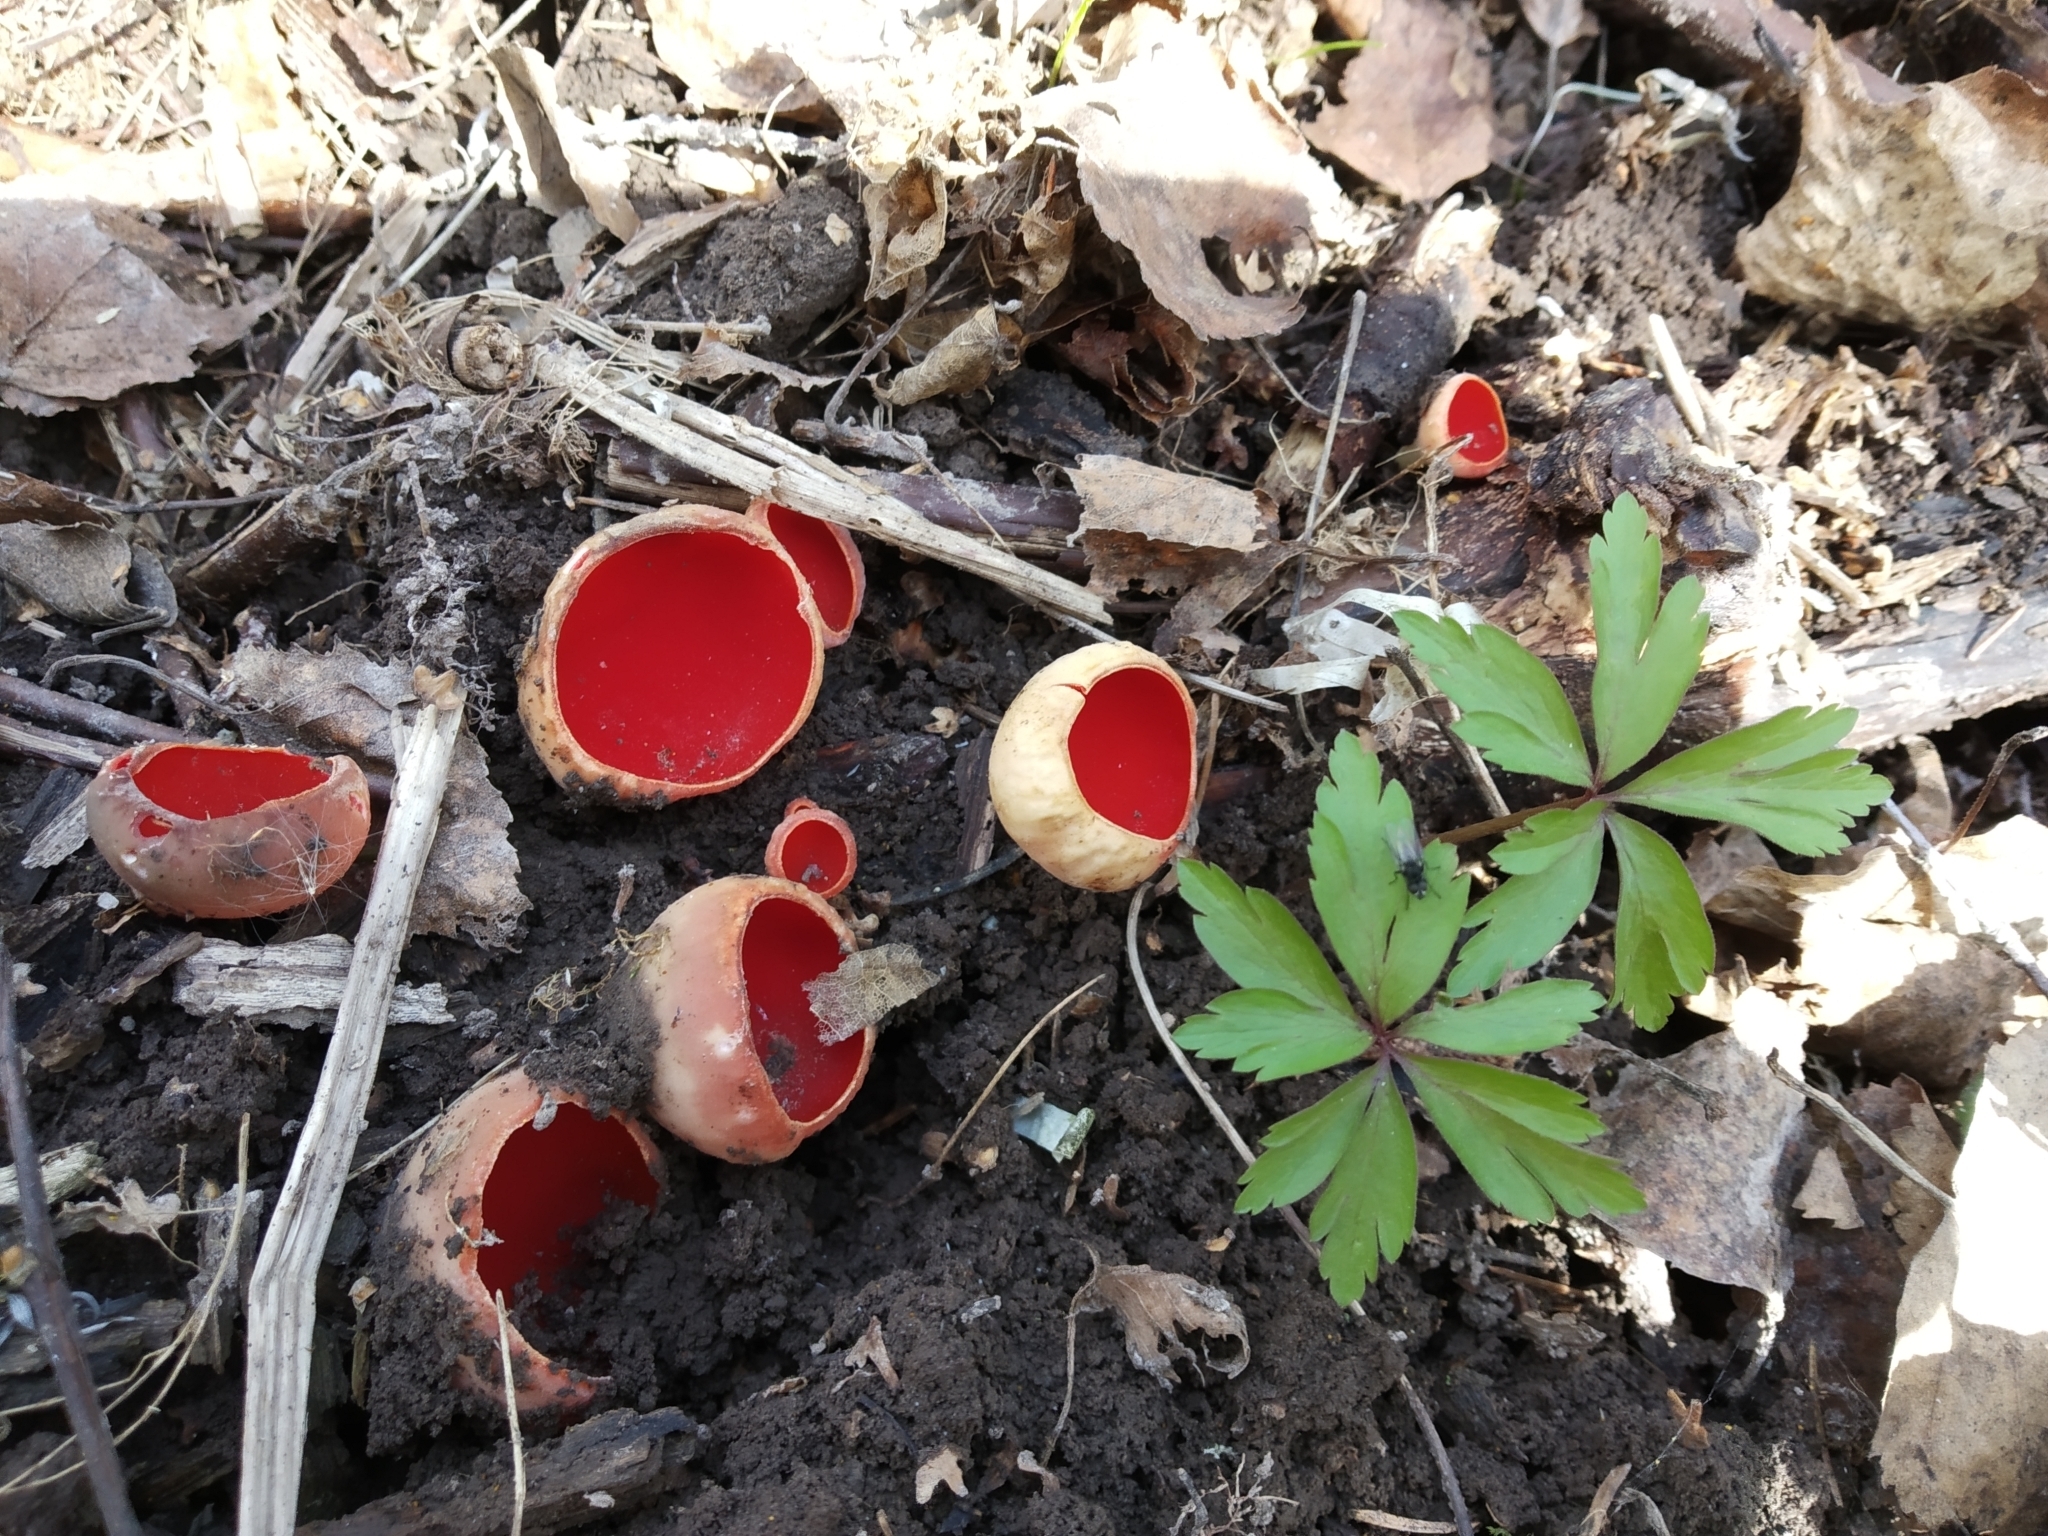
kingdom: Fungi
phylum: Ascomycota
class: Pezizomycetes
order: Pezizales
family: Sarcoscyphaceae
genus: Sarcoscypha
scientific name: Sarcoscypha austriaca
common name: Scarlet elfcup
